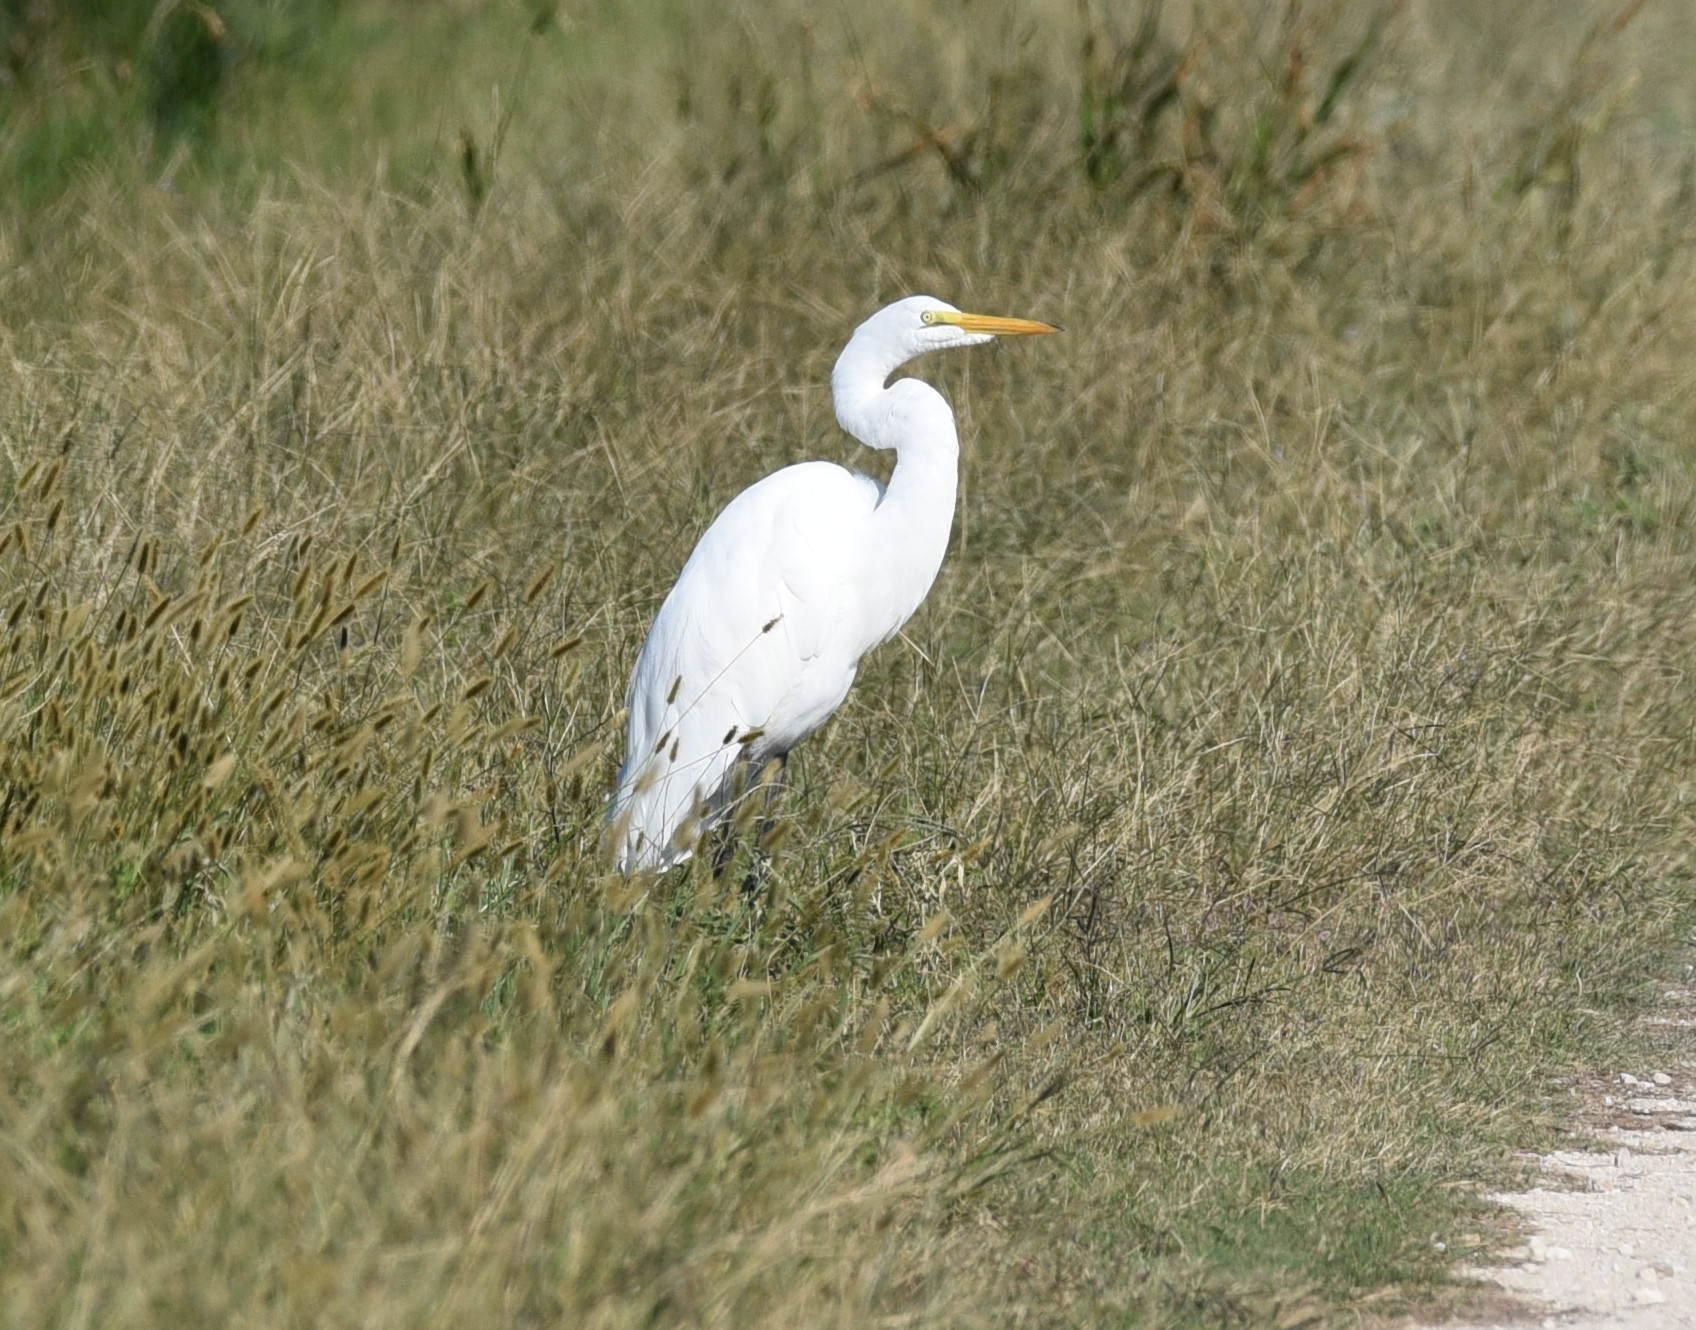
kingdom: Animalia
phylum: Chordata
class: Aves
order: Pelecaniformes
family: Ardeidae
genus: Ardea
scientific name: Ardea alba
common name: Great egret
